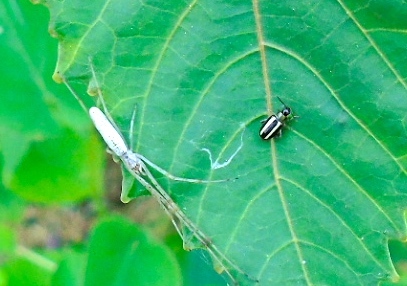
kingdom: Animalia
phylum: Arthropoda
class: Arachnida
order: Araneae
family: Tetragnathidae
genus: Tetragnatha
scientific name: Tetragnatha
